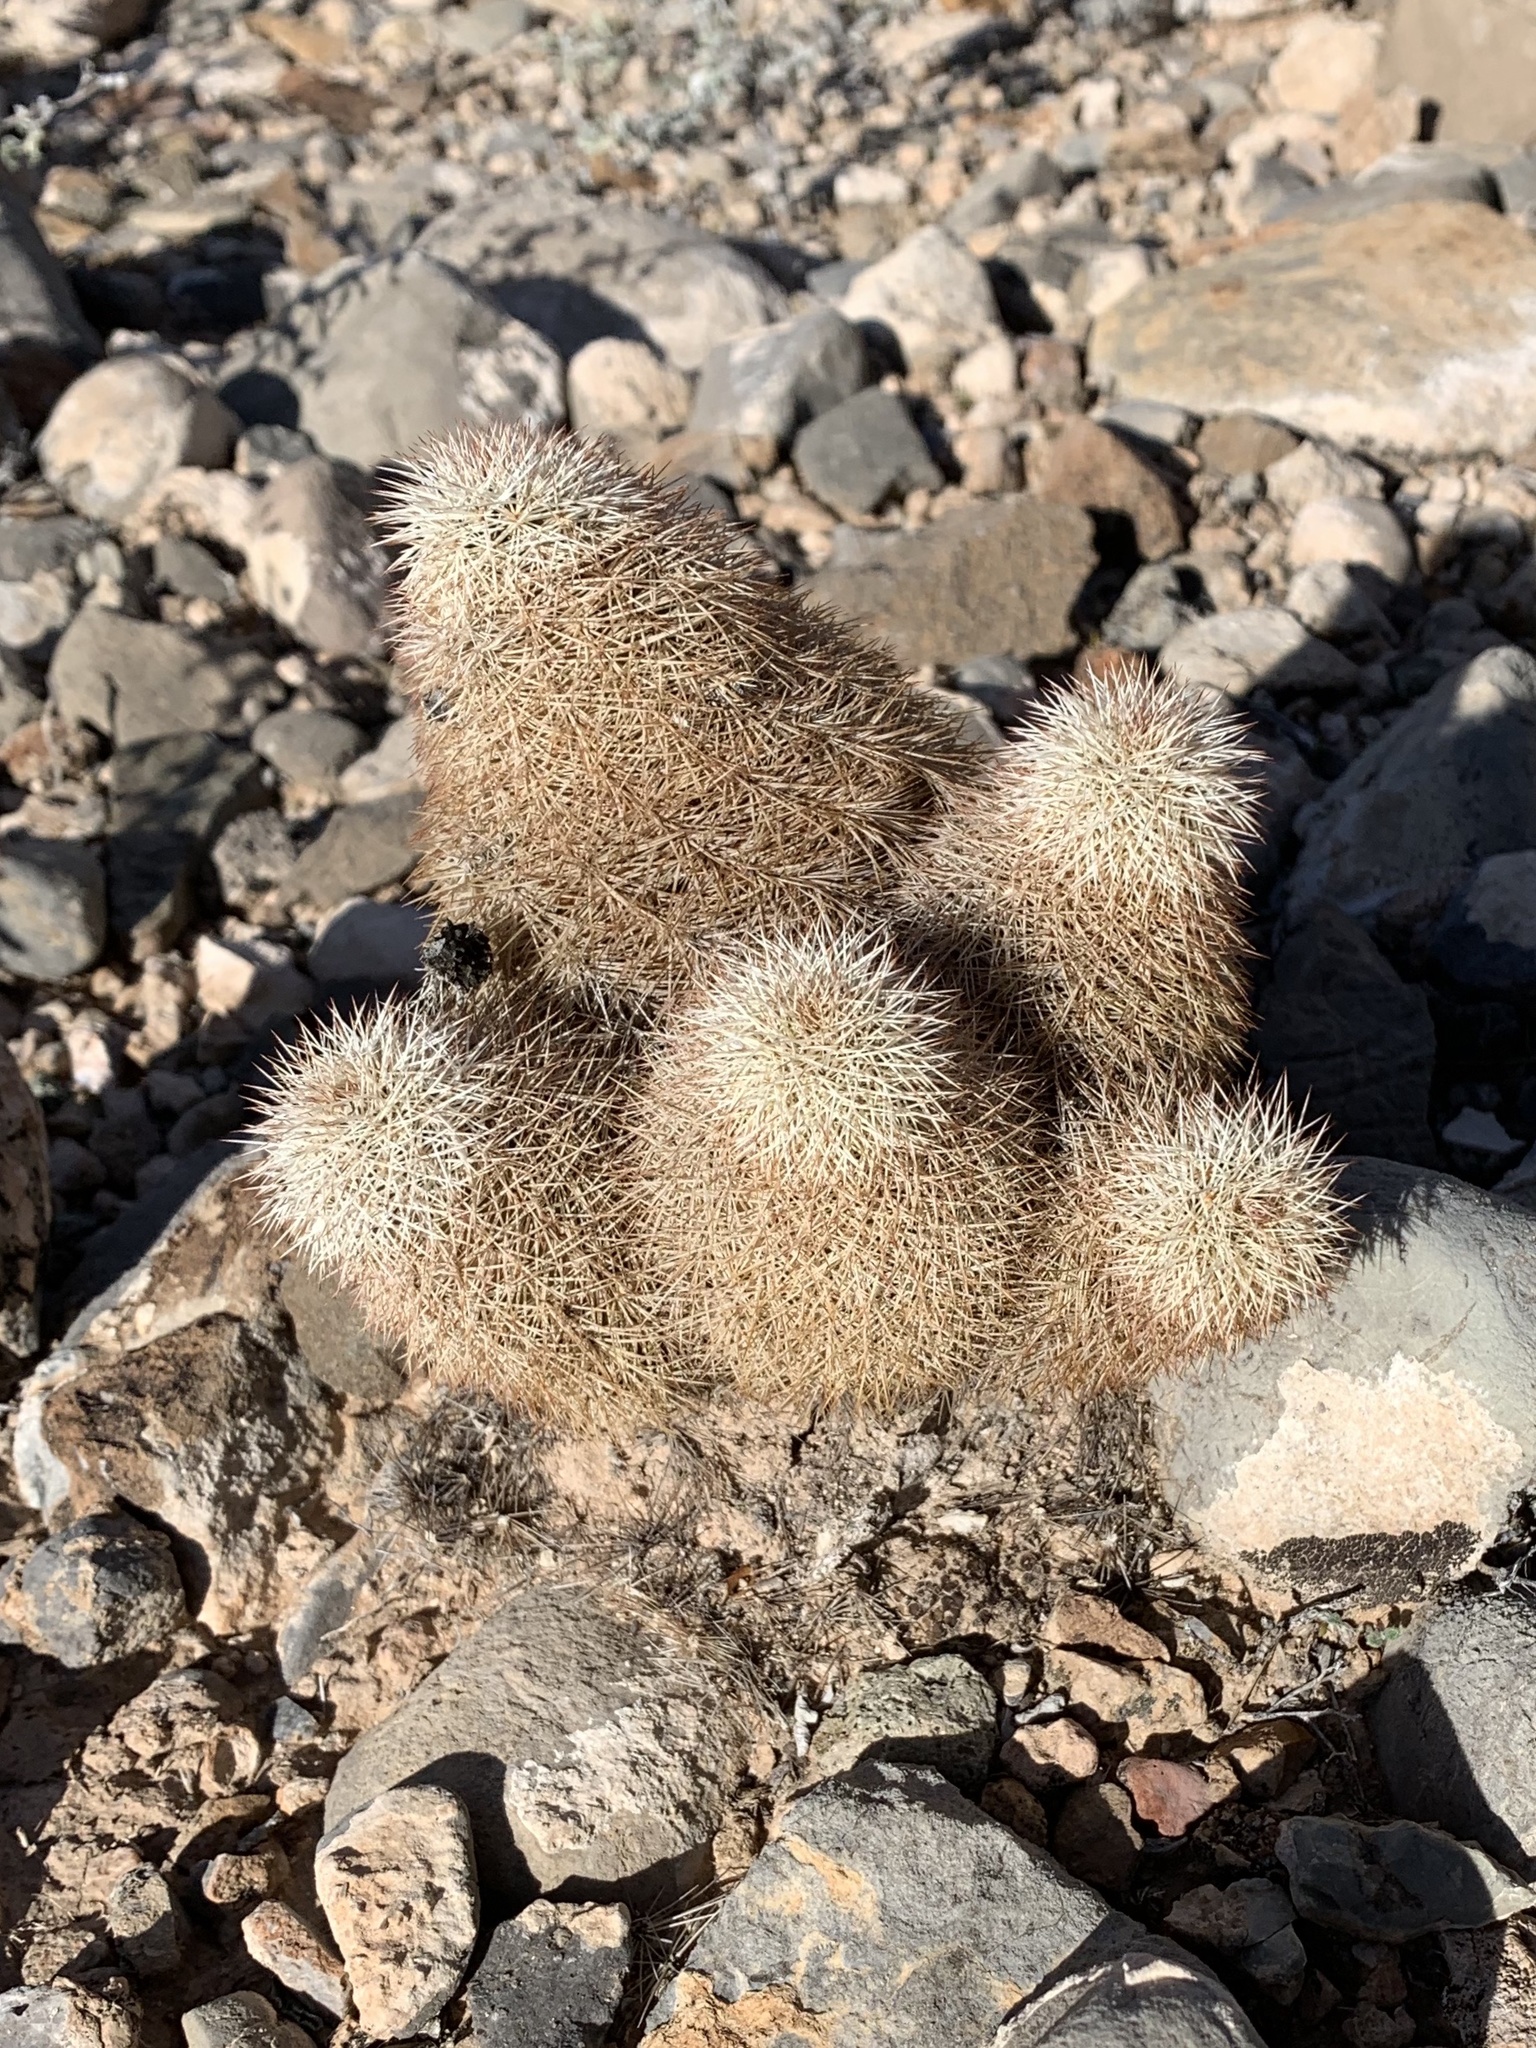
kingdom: Plantae
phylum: Tracheophyta
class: Magnoliopsida
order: Caryophyllales
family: Cactaceae
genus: Echinocereus
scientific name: Echinocereus dasyacanthus
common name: Spiny hedgehog cactus
